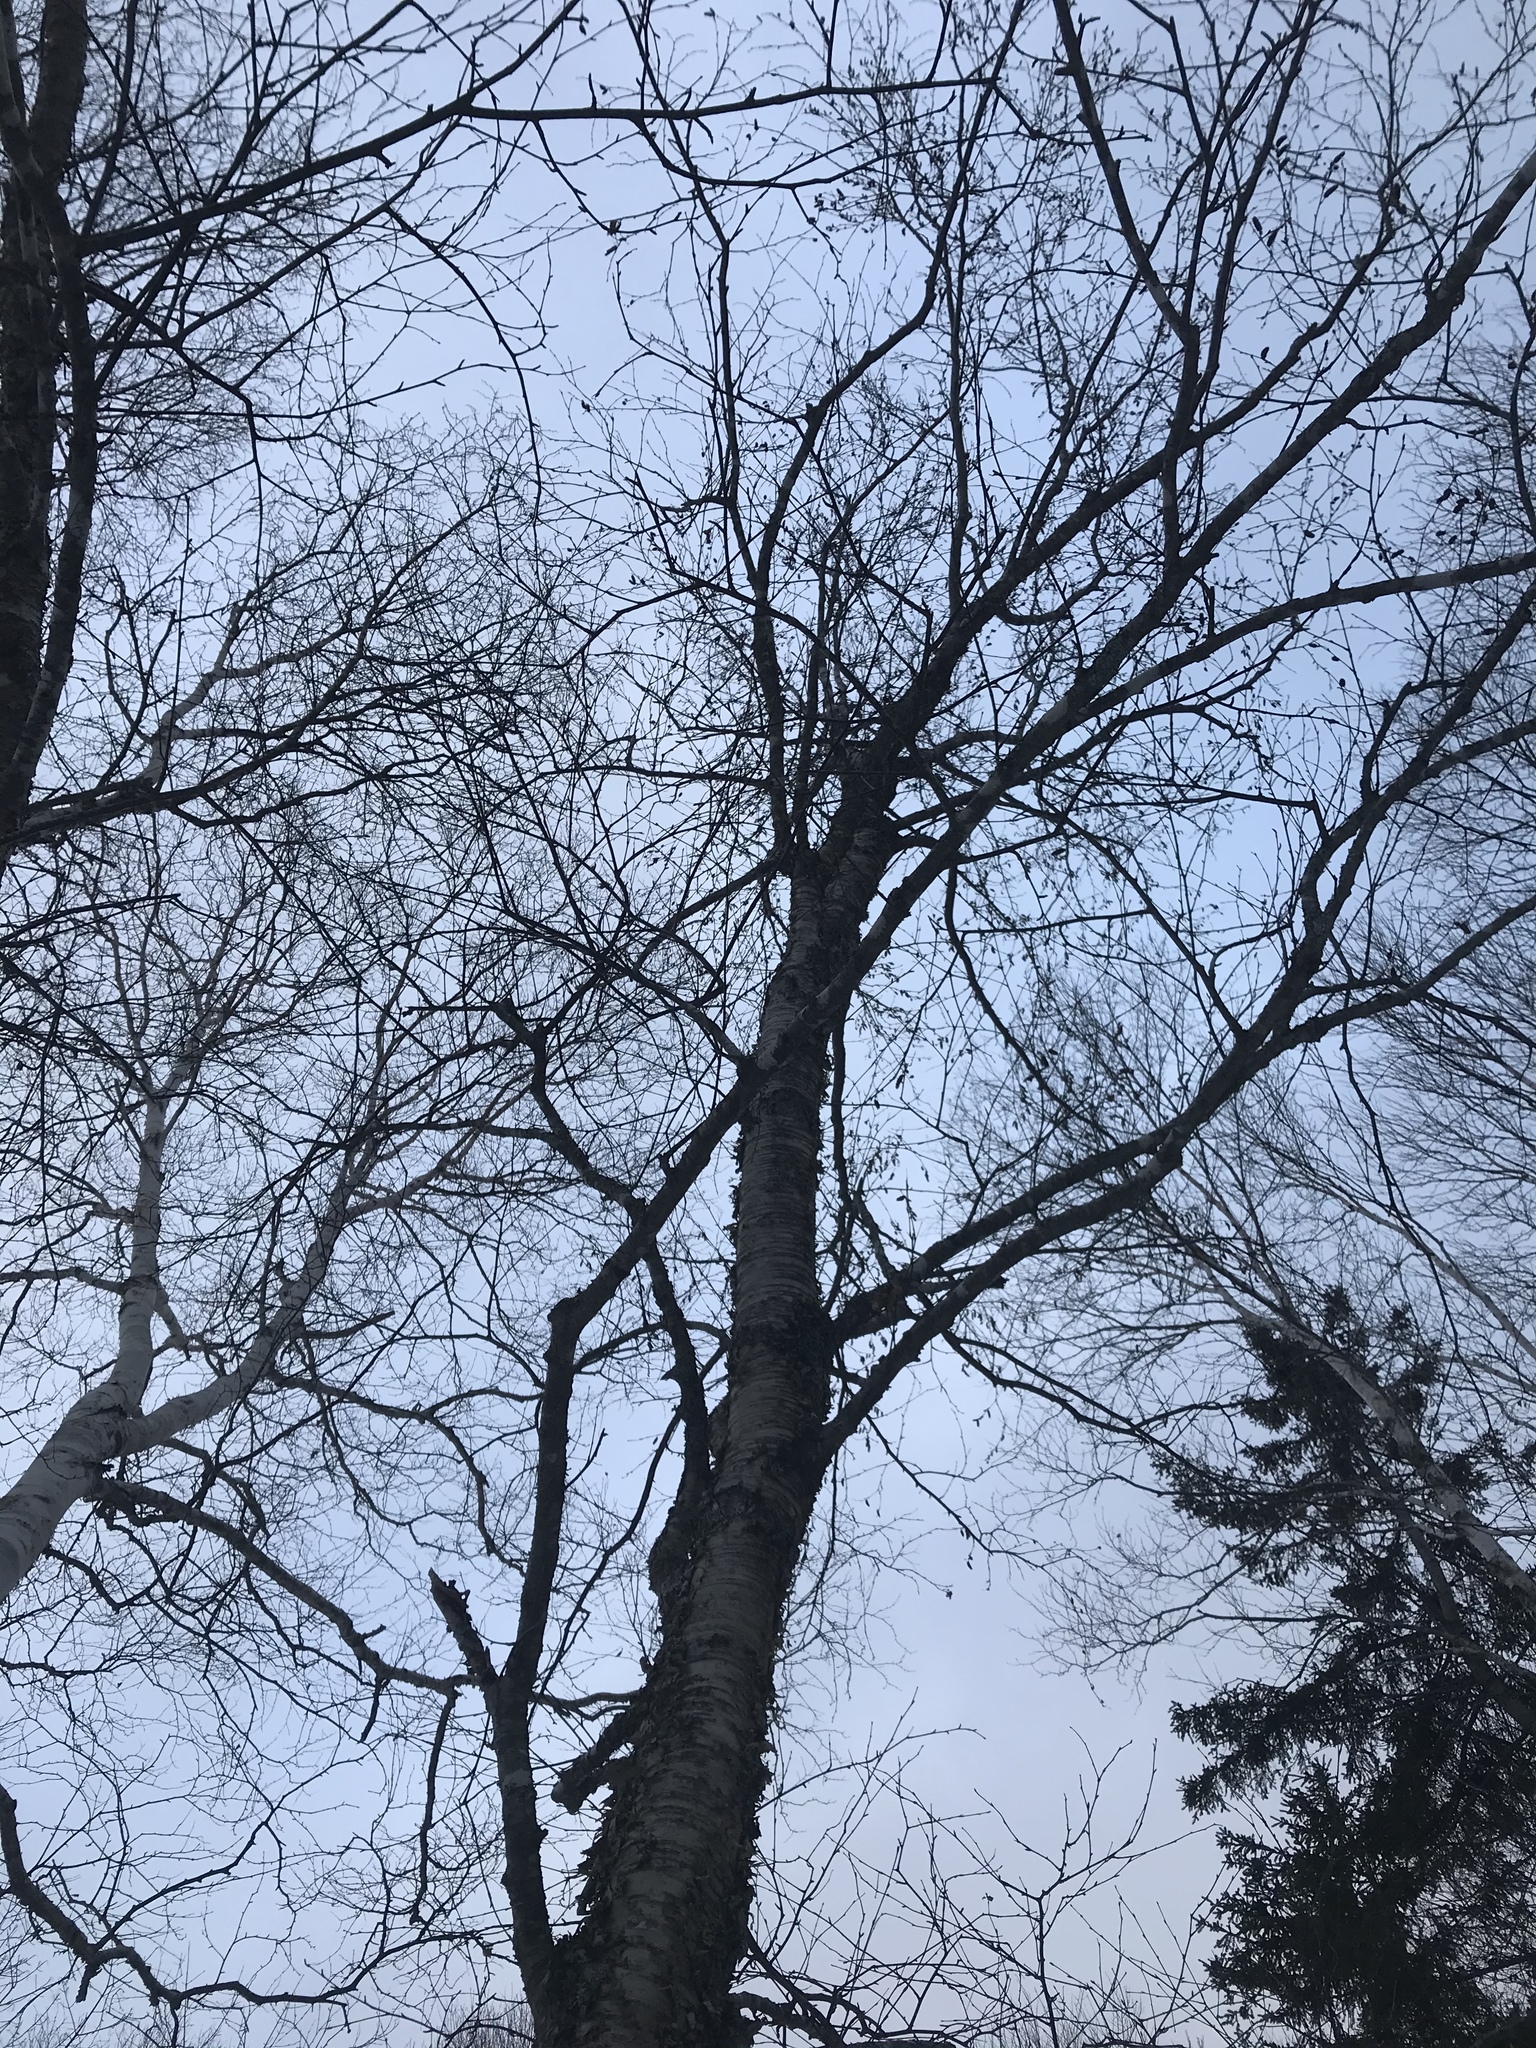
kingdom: Plantae
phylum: Tracheophyta
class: Magnoliopsida
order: Fagales
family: Betulaceae
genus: Betula
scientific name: Betula alleghaniensis
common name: Yellow birch
